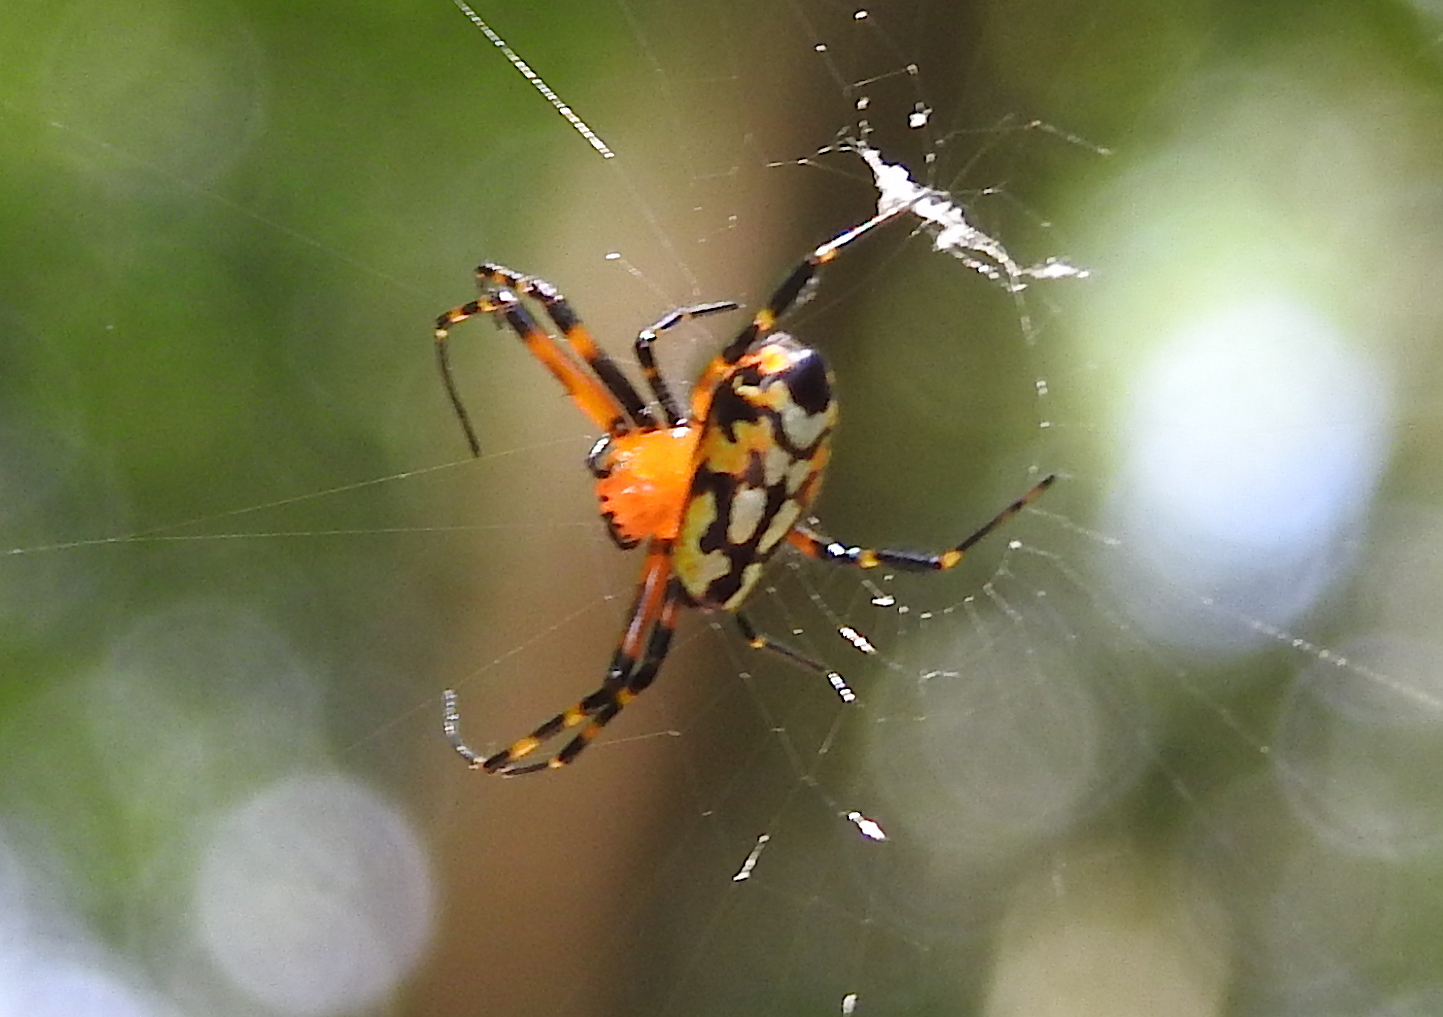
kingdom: Animalia
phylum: Arthropoda
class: Arachnida
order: Araneae
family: Tetragnathidae
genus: Leucauge
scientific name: Leucauge fastigata
